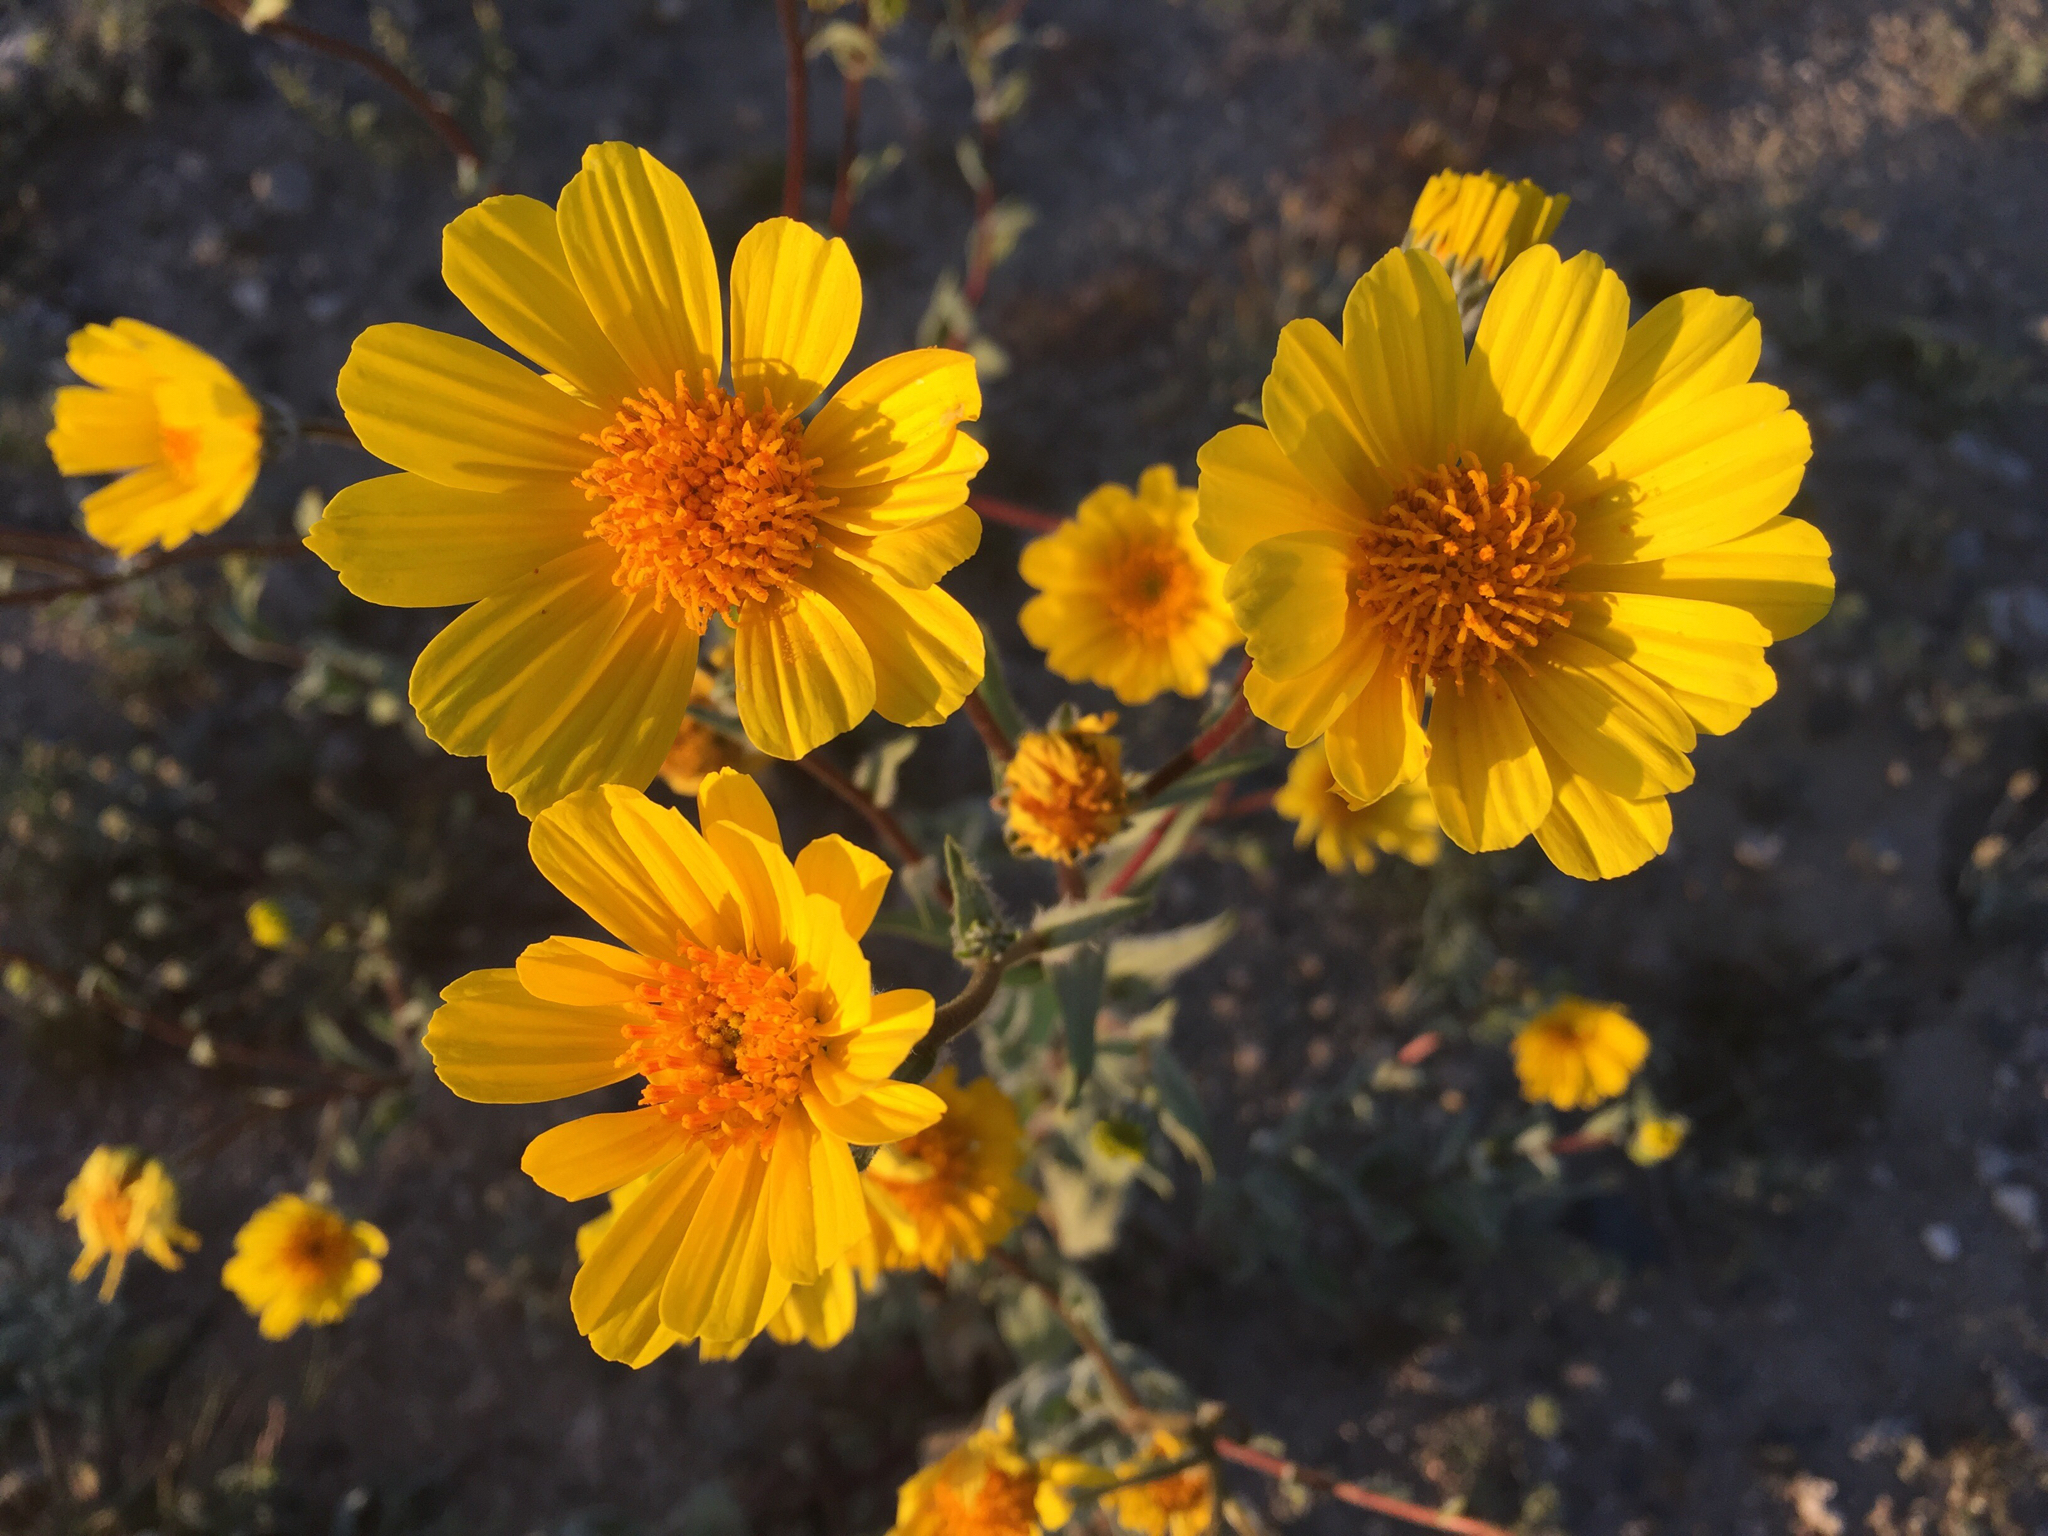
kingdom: Plantae
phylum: Tracheophyta
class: Magnoliopsida
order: Asterales
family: Asteraceae
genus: Geraea
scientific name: Geraea canescens
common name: Desert-gold
